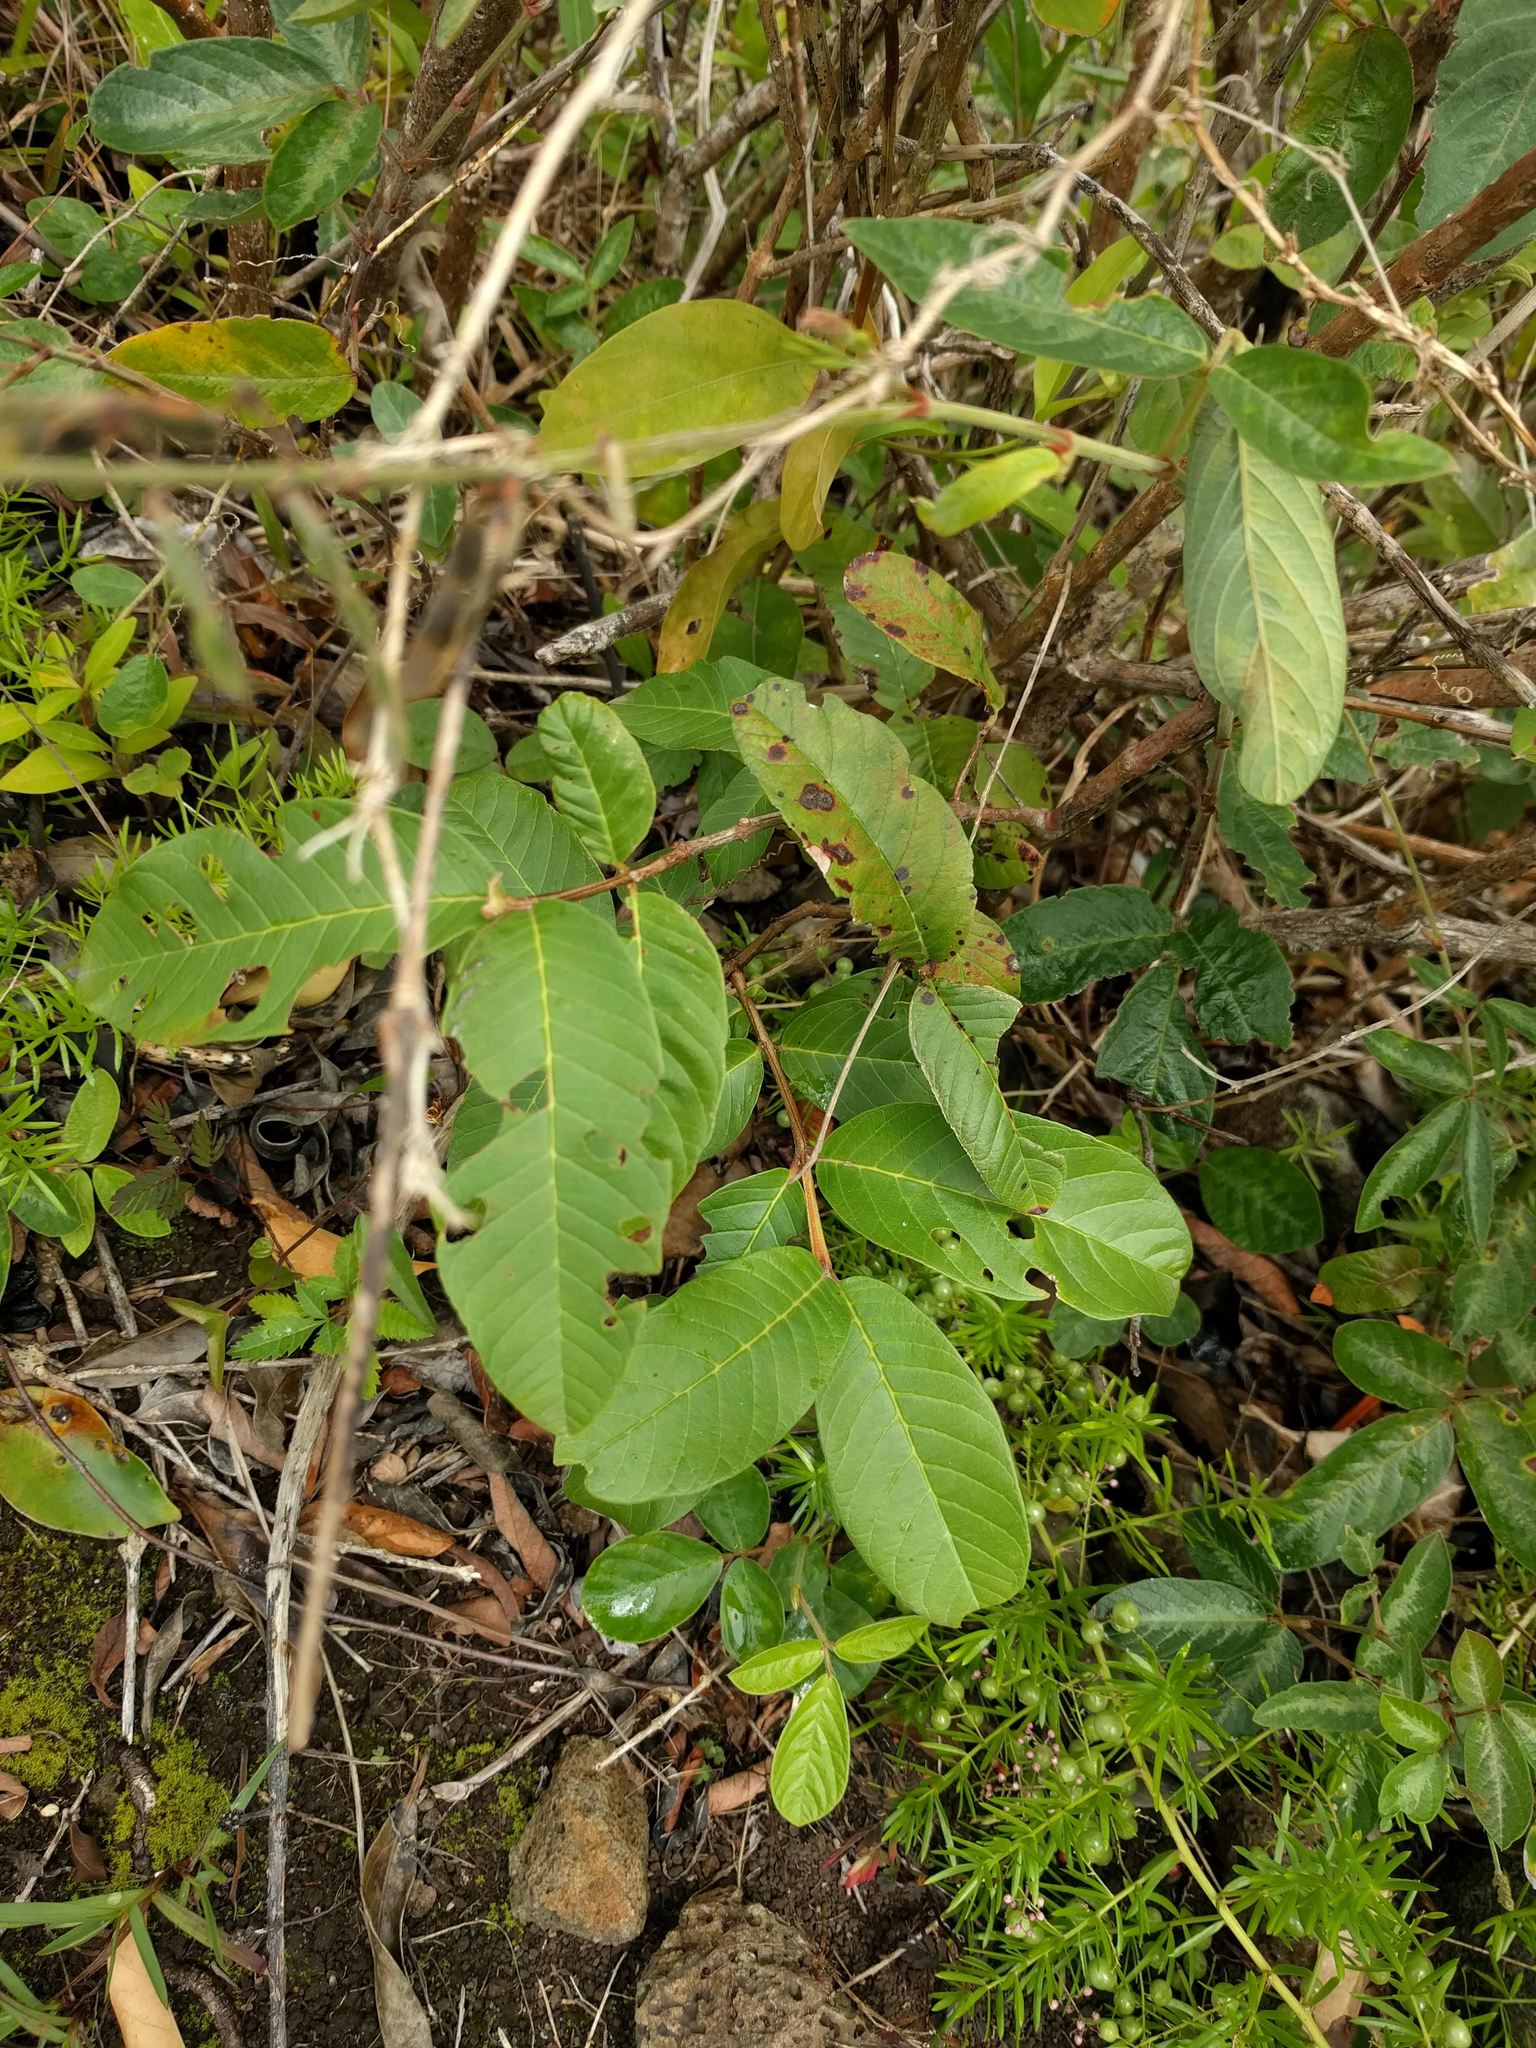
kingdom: Plantae
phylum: Tracheophyta
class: Magnoliopsida
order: Myrtales
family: Myrtaceae
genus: Psidium
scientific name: Psidium guajava
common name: Guava
